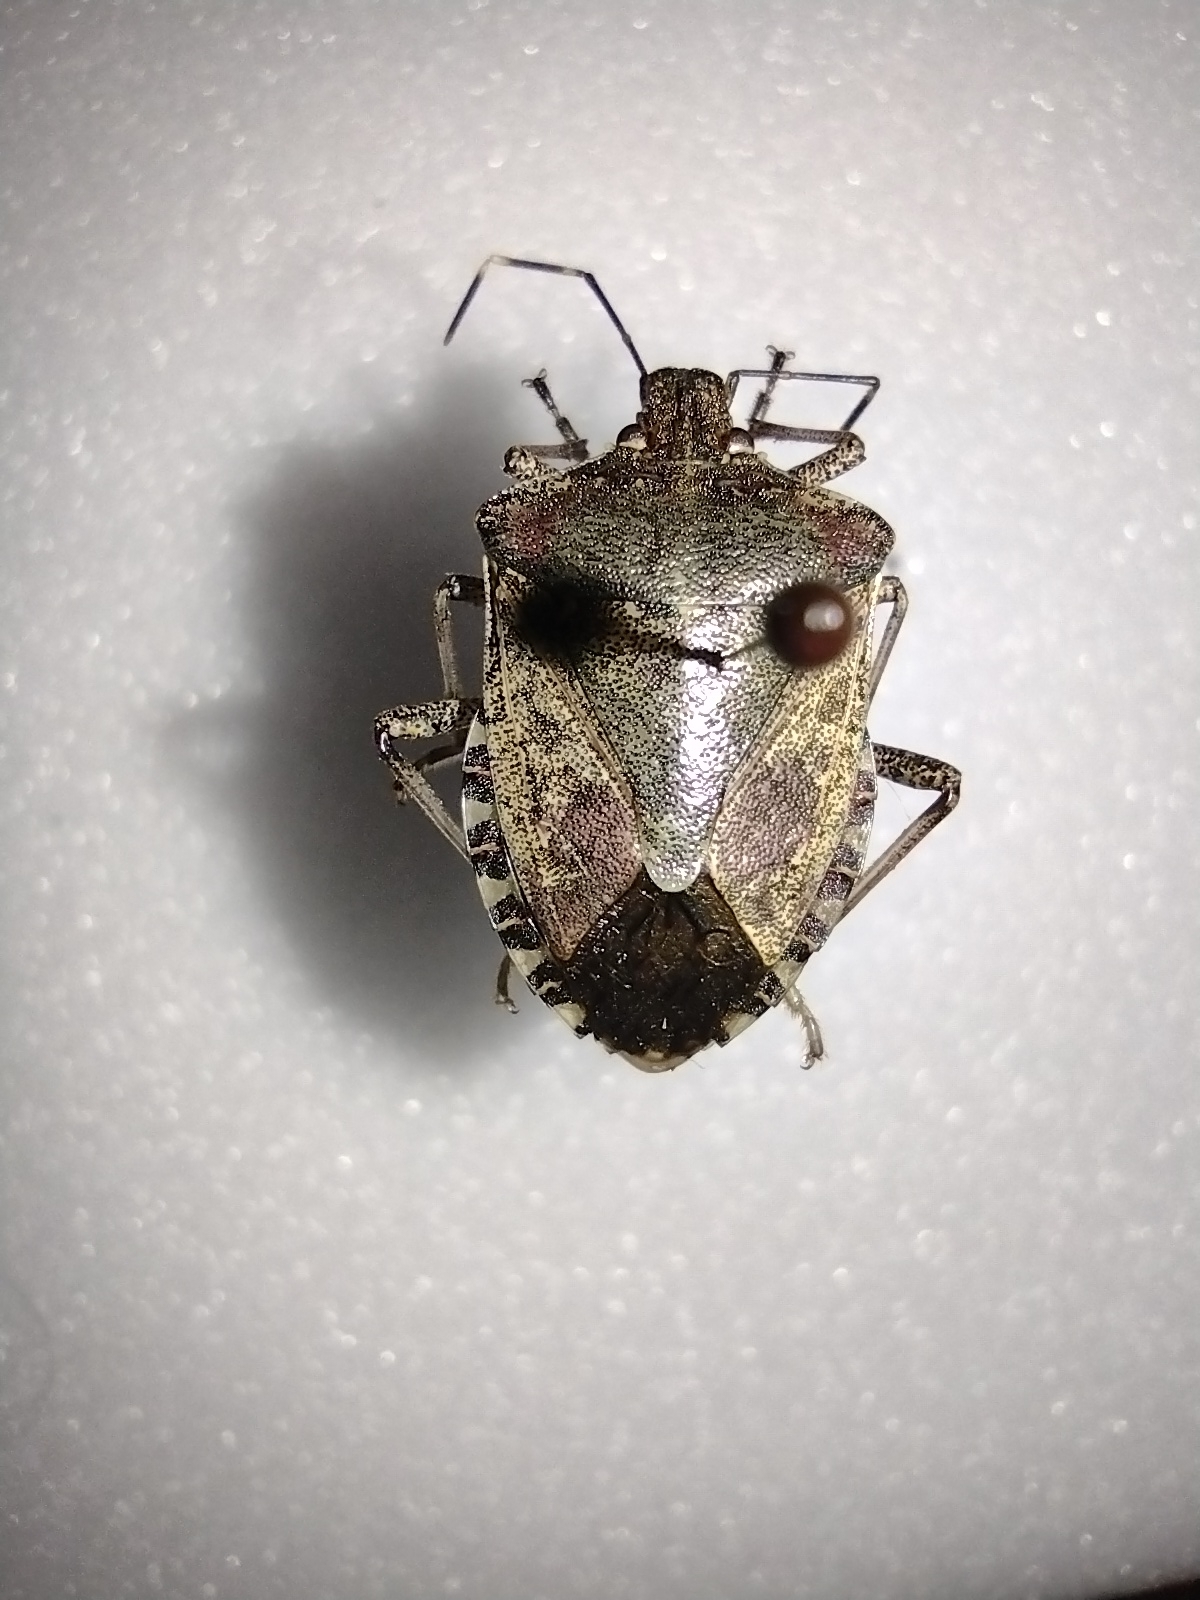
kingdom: Animalia
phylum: Arthropoda
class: Insecta
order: Hemiptera
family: Pentatomidae
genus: Halyomorpha
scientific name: Halyomorpha halys
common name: Brown marmorated stink bug
